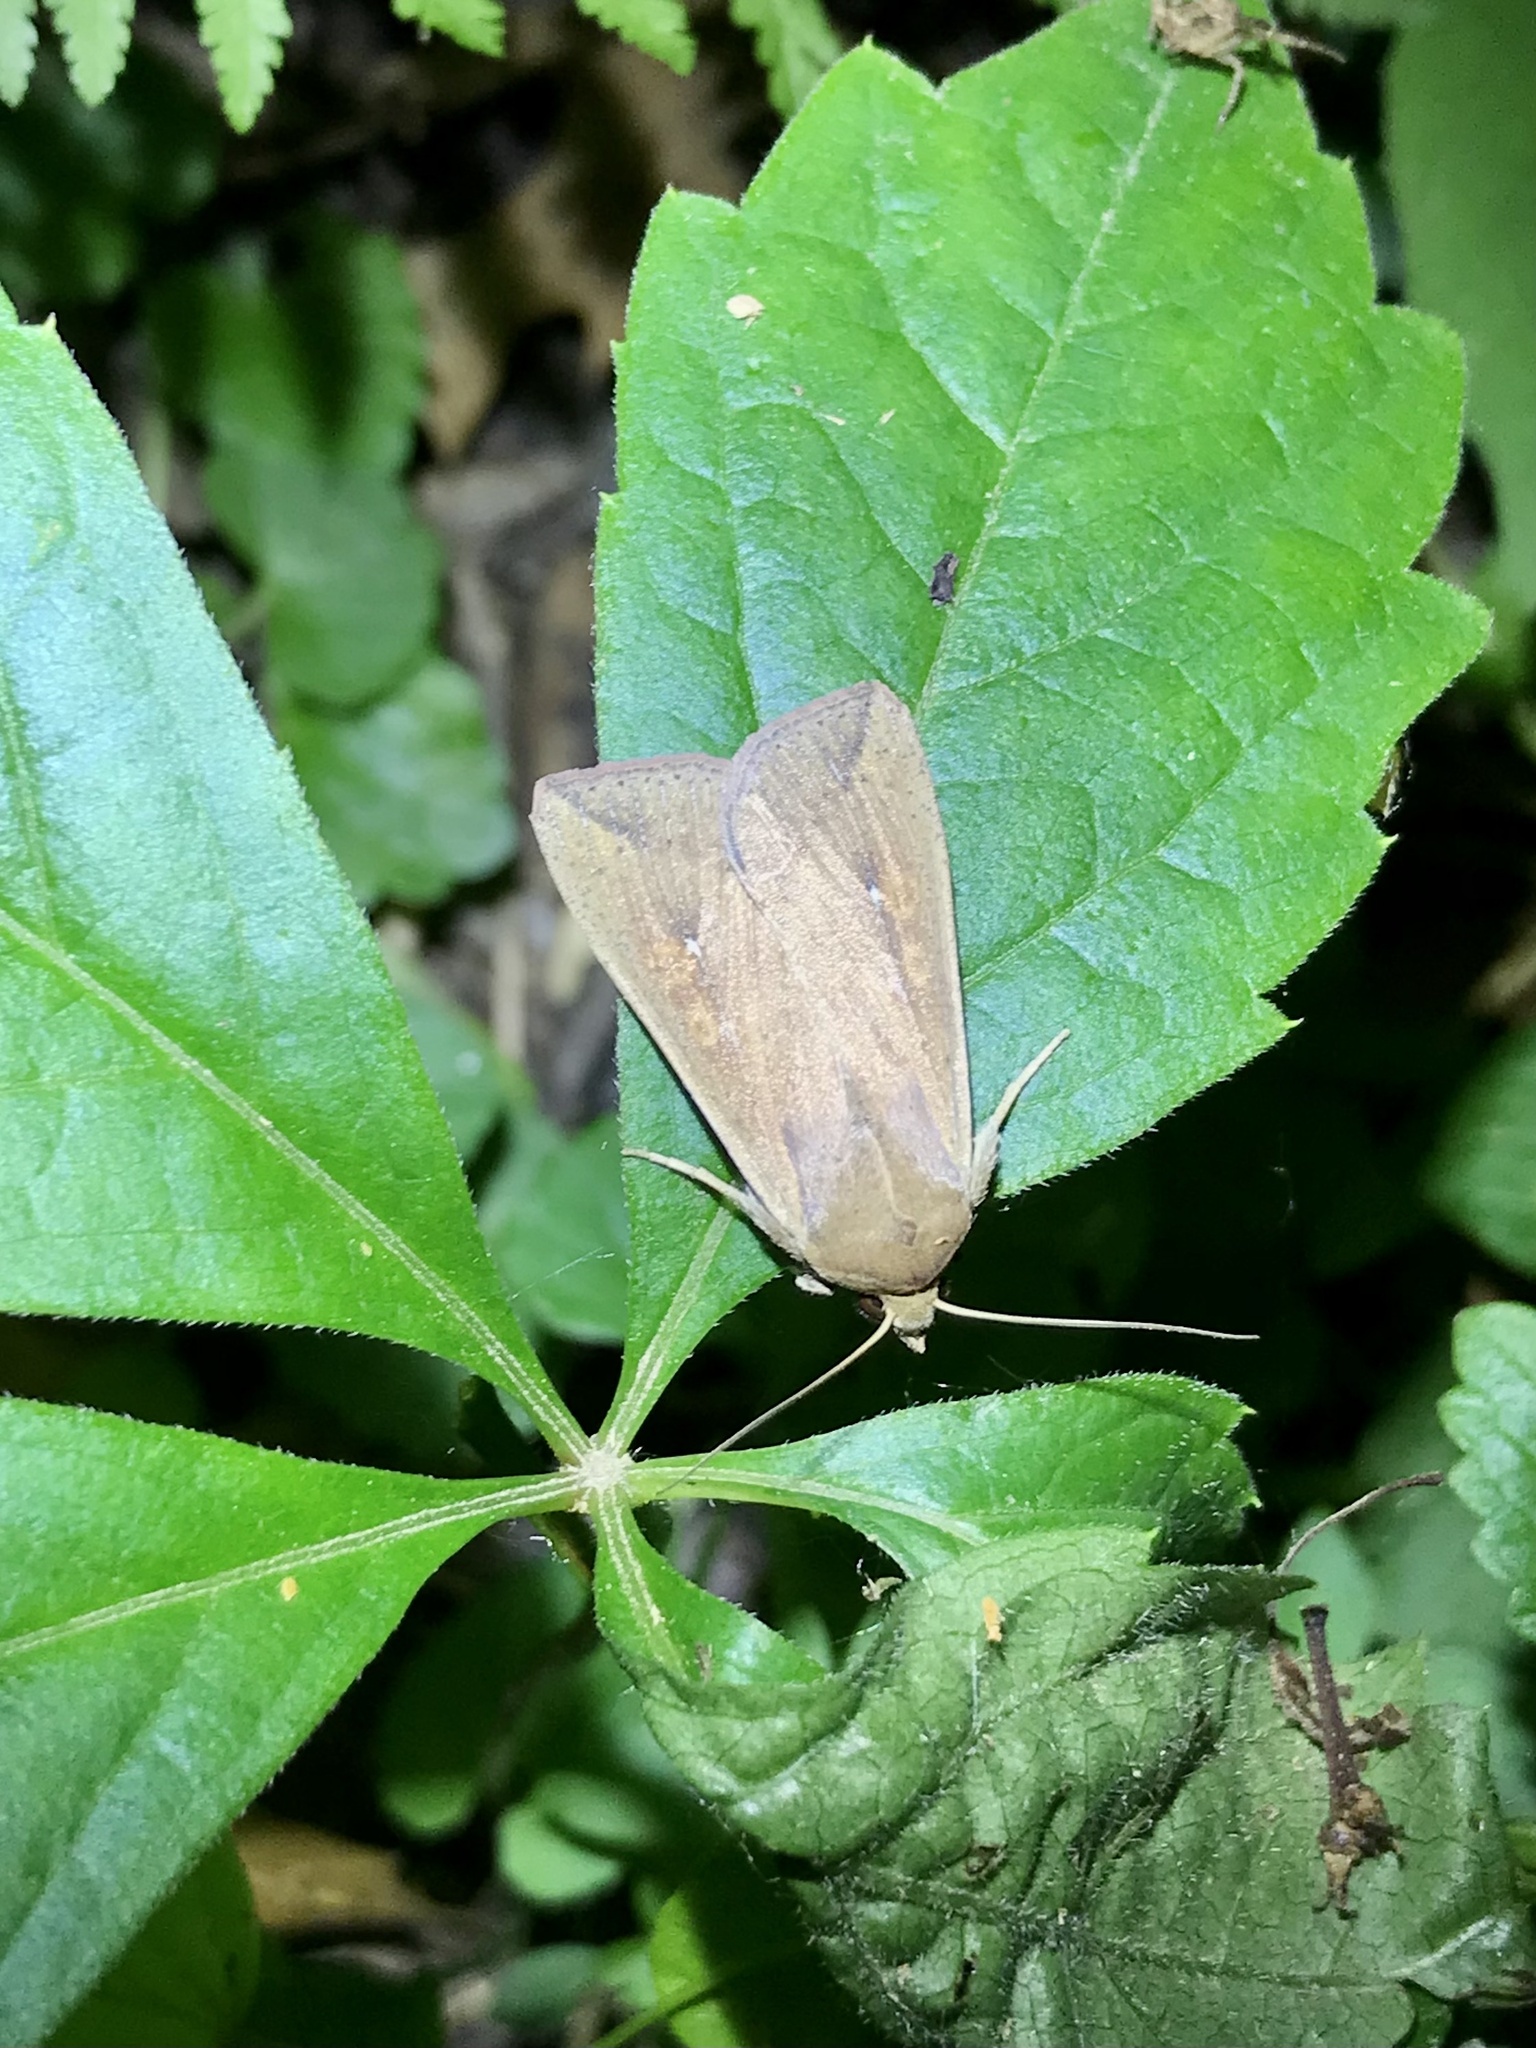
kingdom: Animalia
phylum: Arthropoda
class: Insecta
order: Lepidoptera
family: Noctuidae
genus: Mythimna
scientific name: Mythimna unipuncta
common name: White-speck
